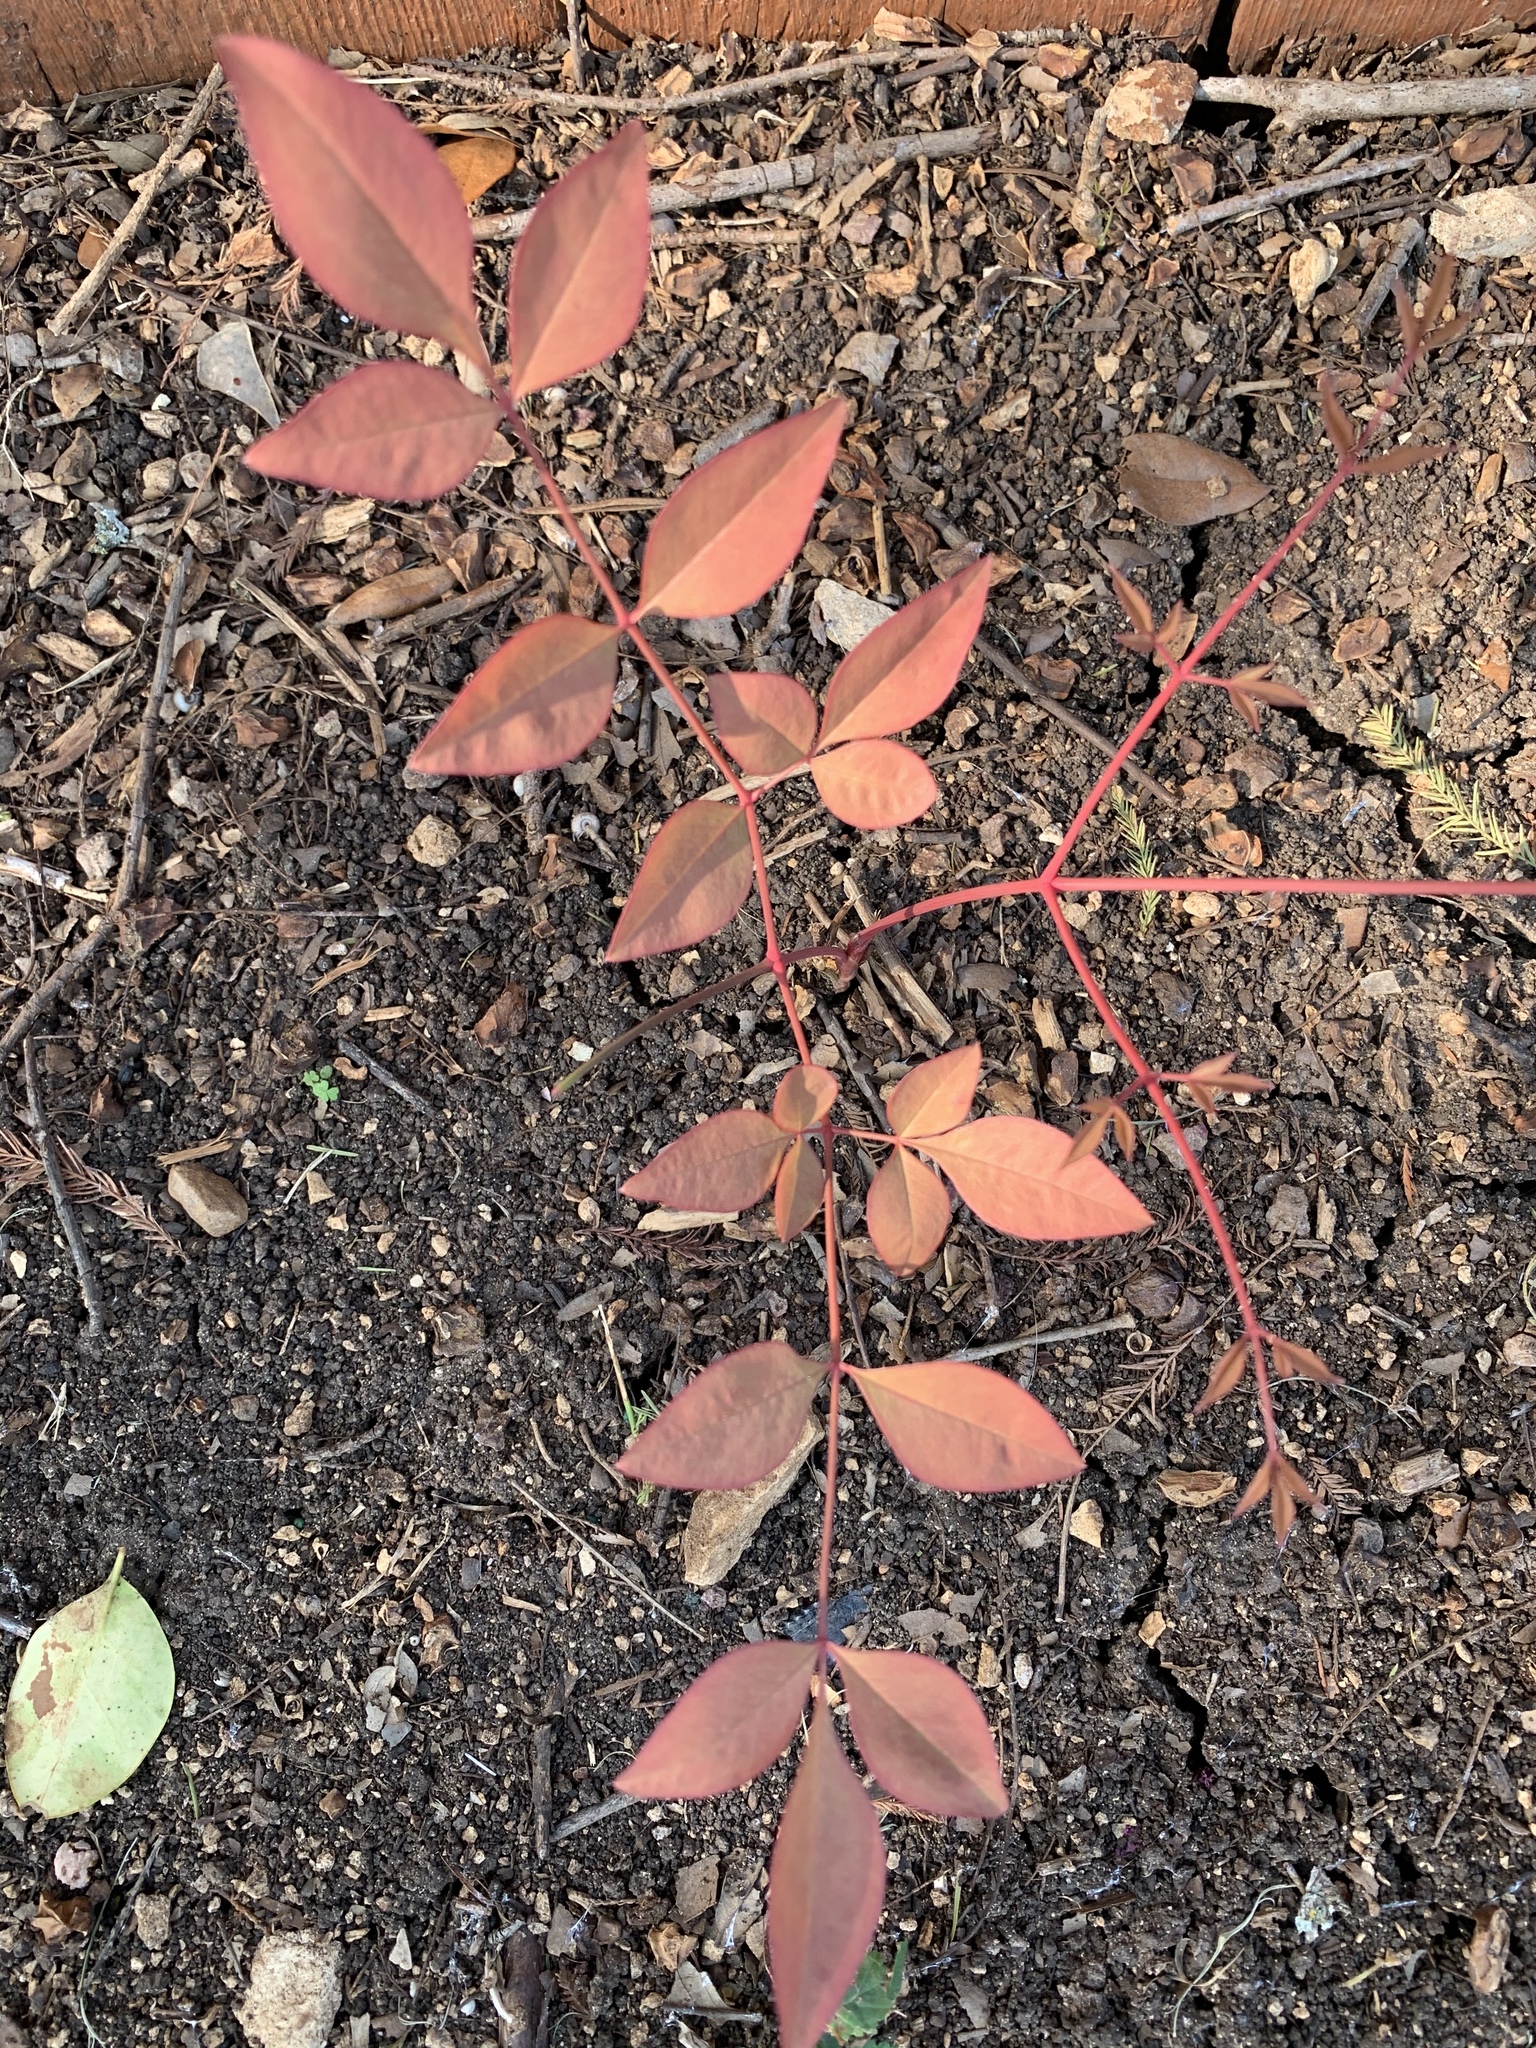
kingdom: Plantae
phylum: Tracheophyta
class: Magnoliopsida
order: Ranunculales
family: Berberidaceae
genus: Nandina
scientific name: Nandina domestica
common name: Sacred bamboo
